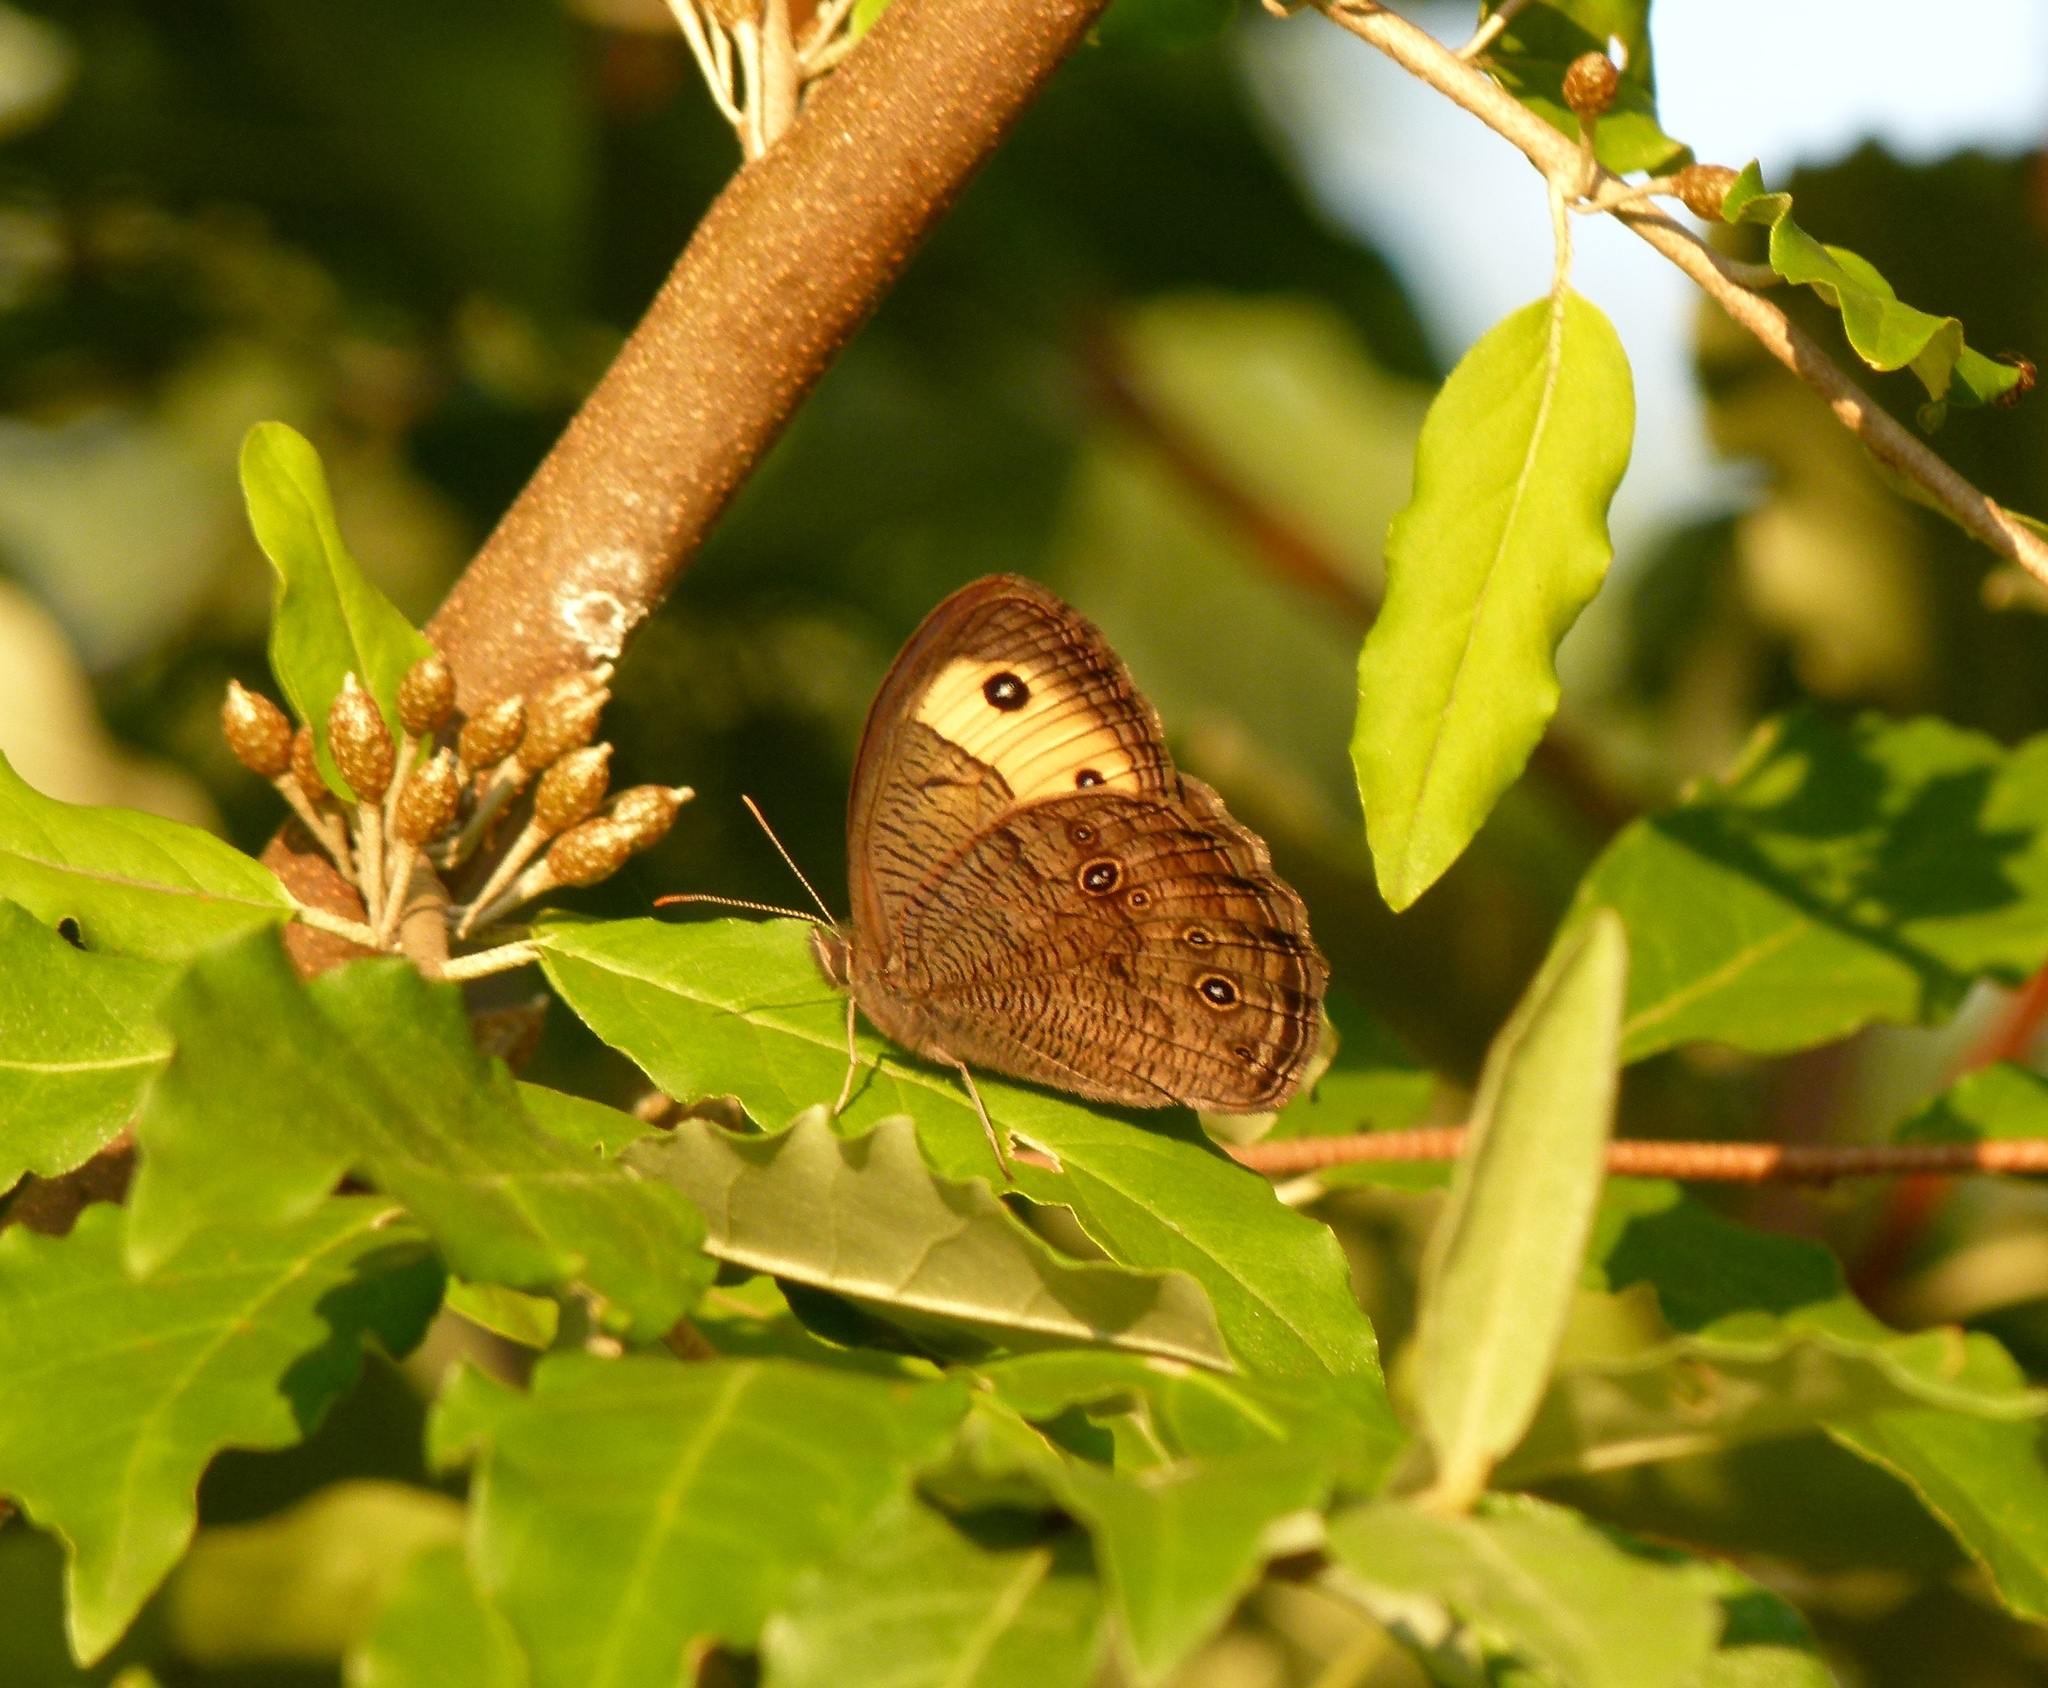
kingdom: Animalia
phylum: Arthropoda
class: Insecta
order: Lepidoptera
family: Nymphalidae
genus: Cercyonis
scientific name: Cercyonis pegala
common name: Common wood-nymph
